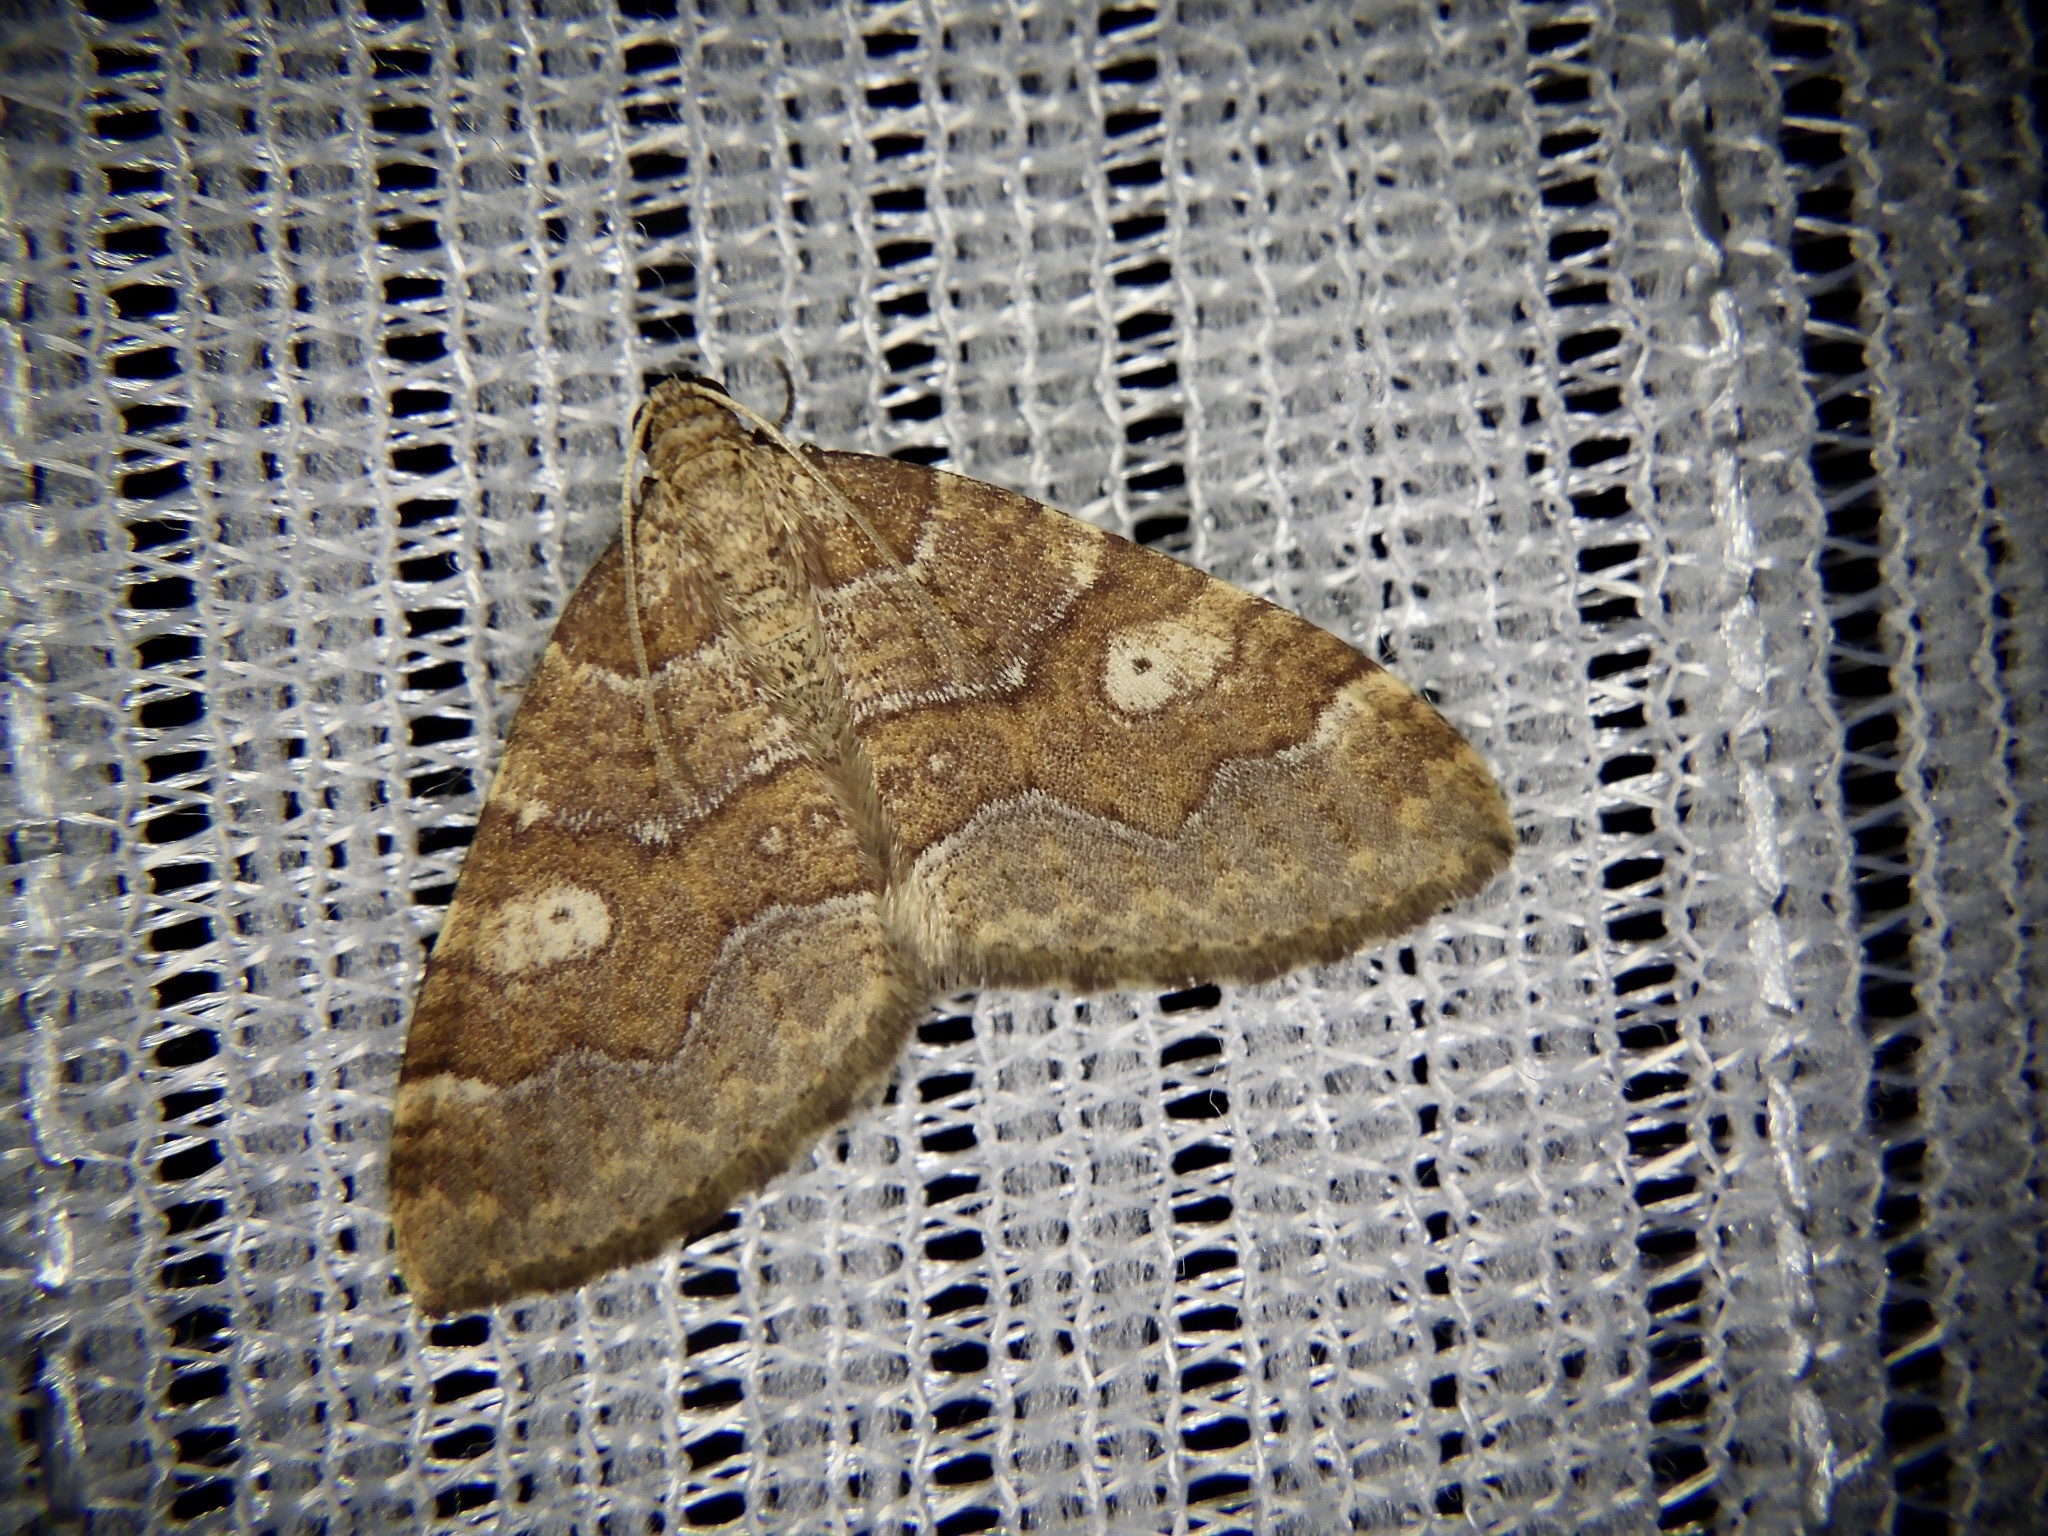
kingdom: Animalia
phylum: Arthropoda
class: Insecta
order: Lepidoptera
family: Geometridae
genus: Idiotephria
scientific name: Idiotephria evanescens
